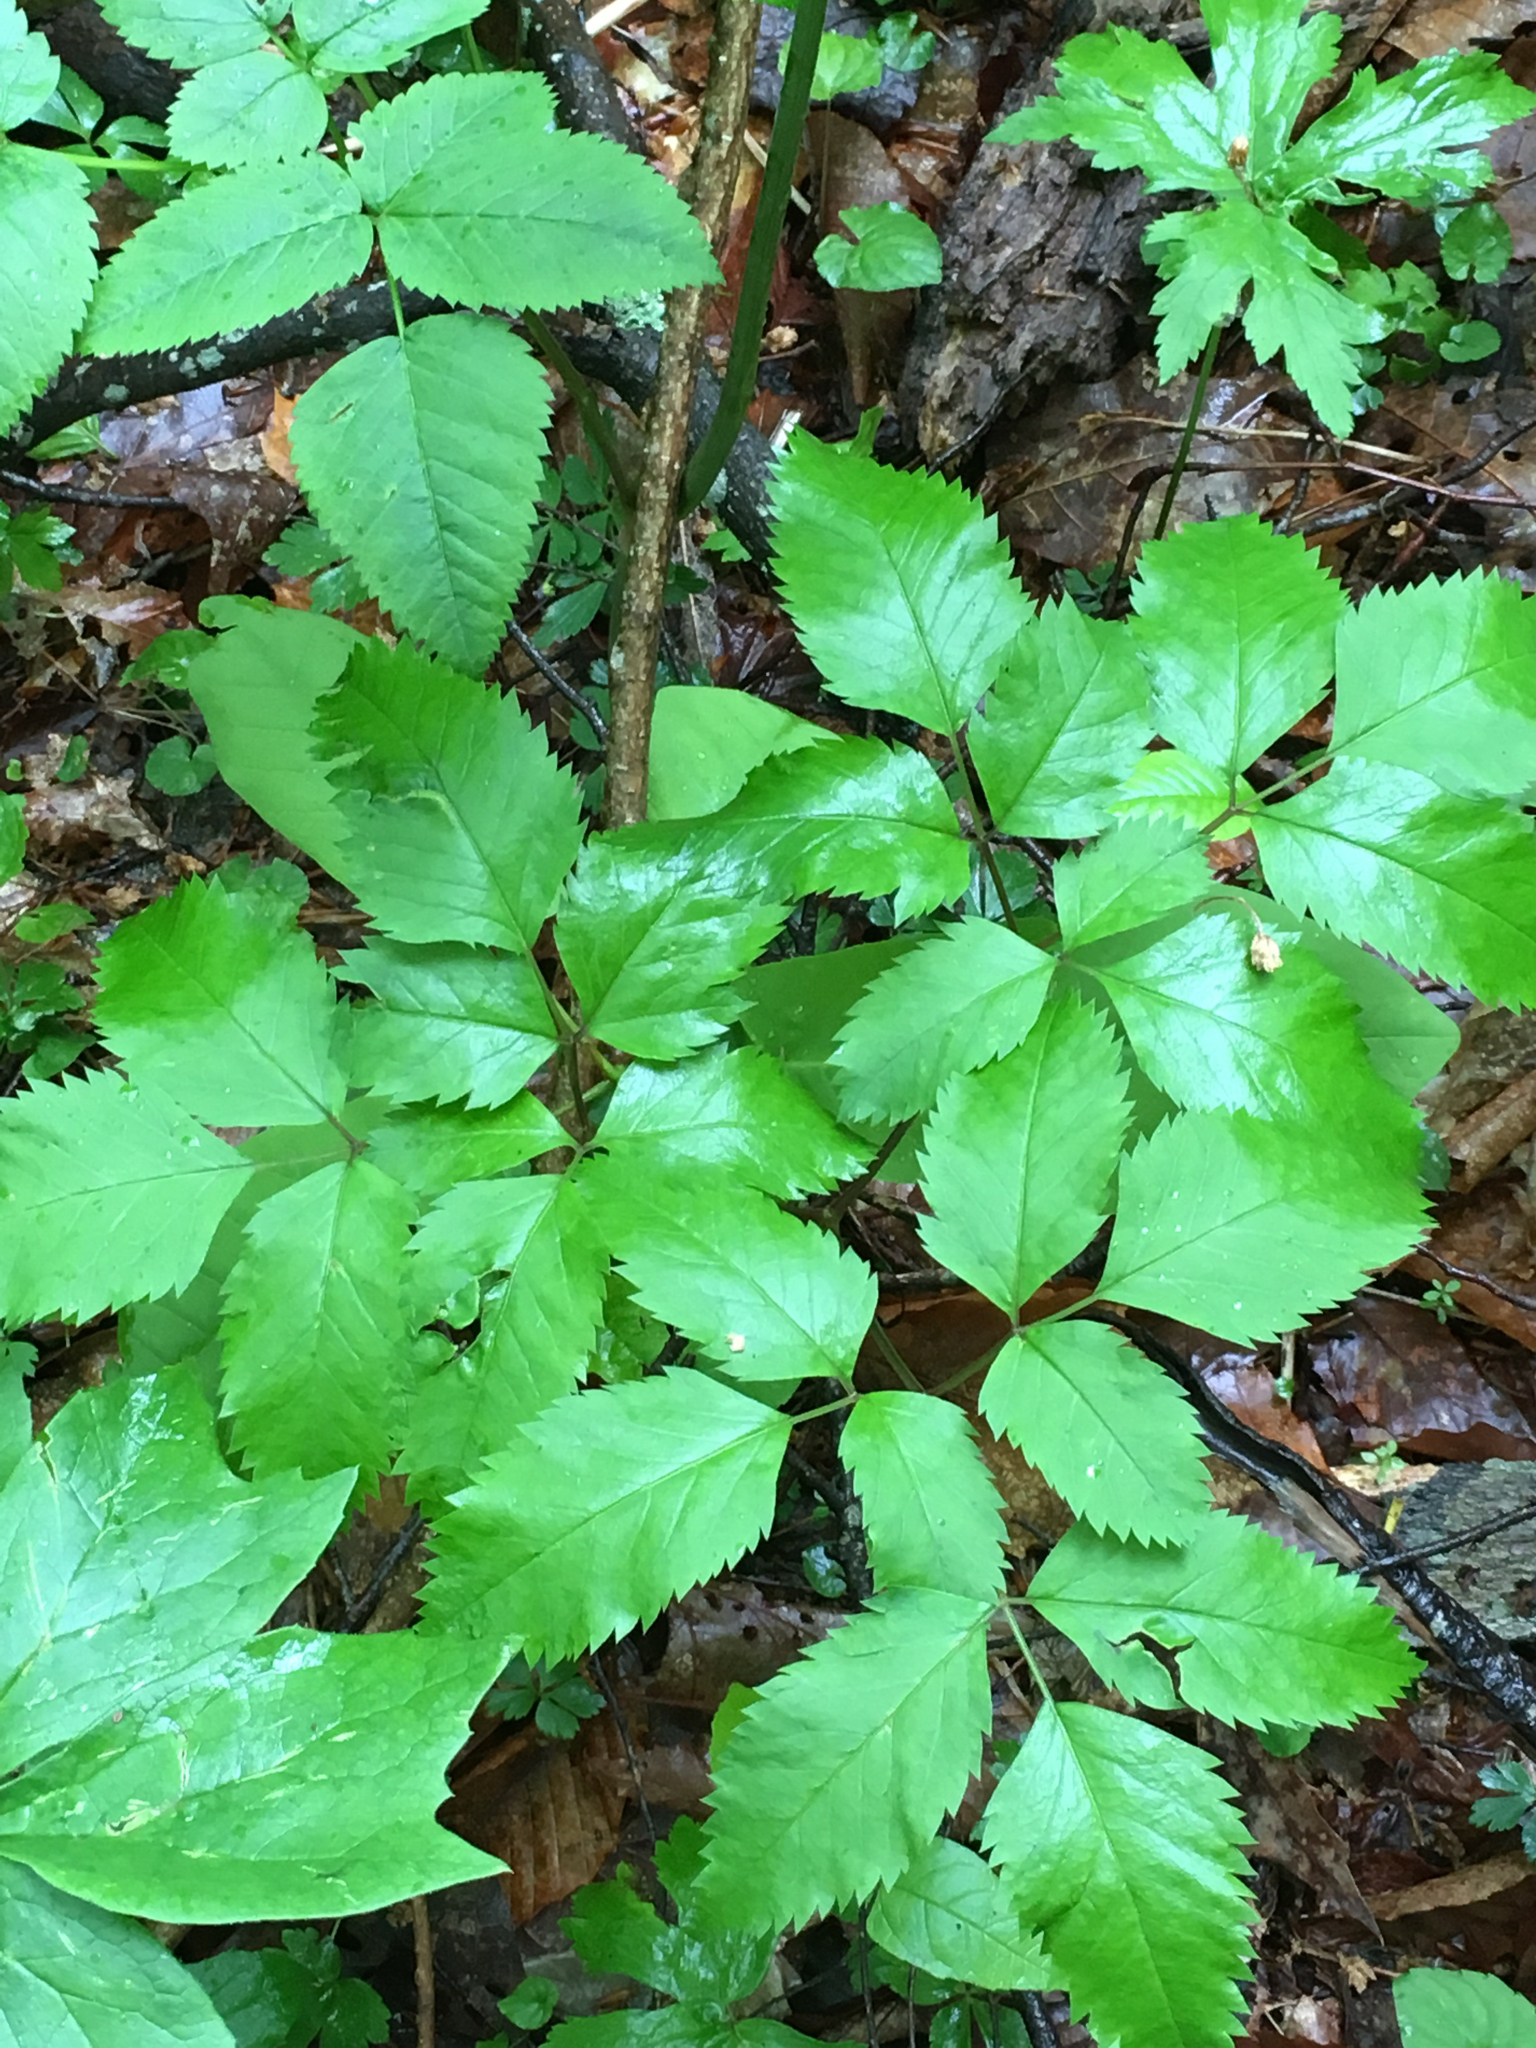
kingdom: Plantae
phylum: Tracheophyta
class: Magnoliopsida
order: Apiales
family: Apiaceae
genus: Ligusticum
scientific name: Ligusticum canadense
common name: American lovage
